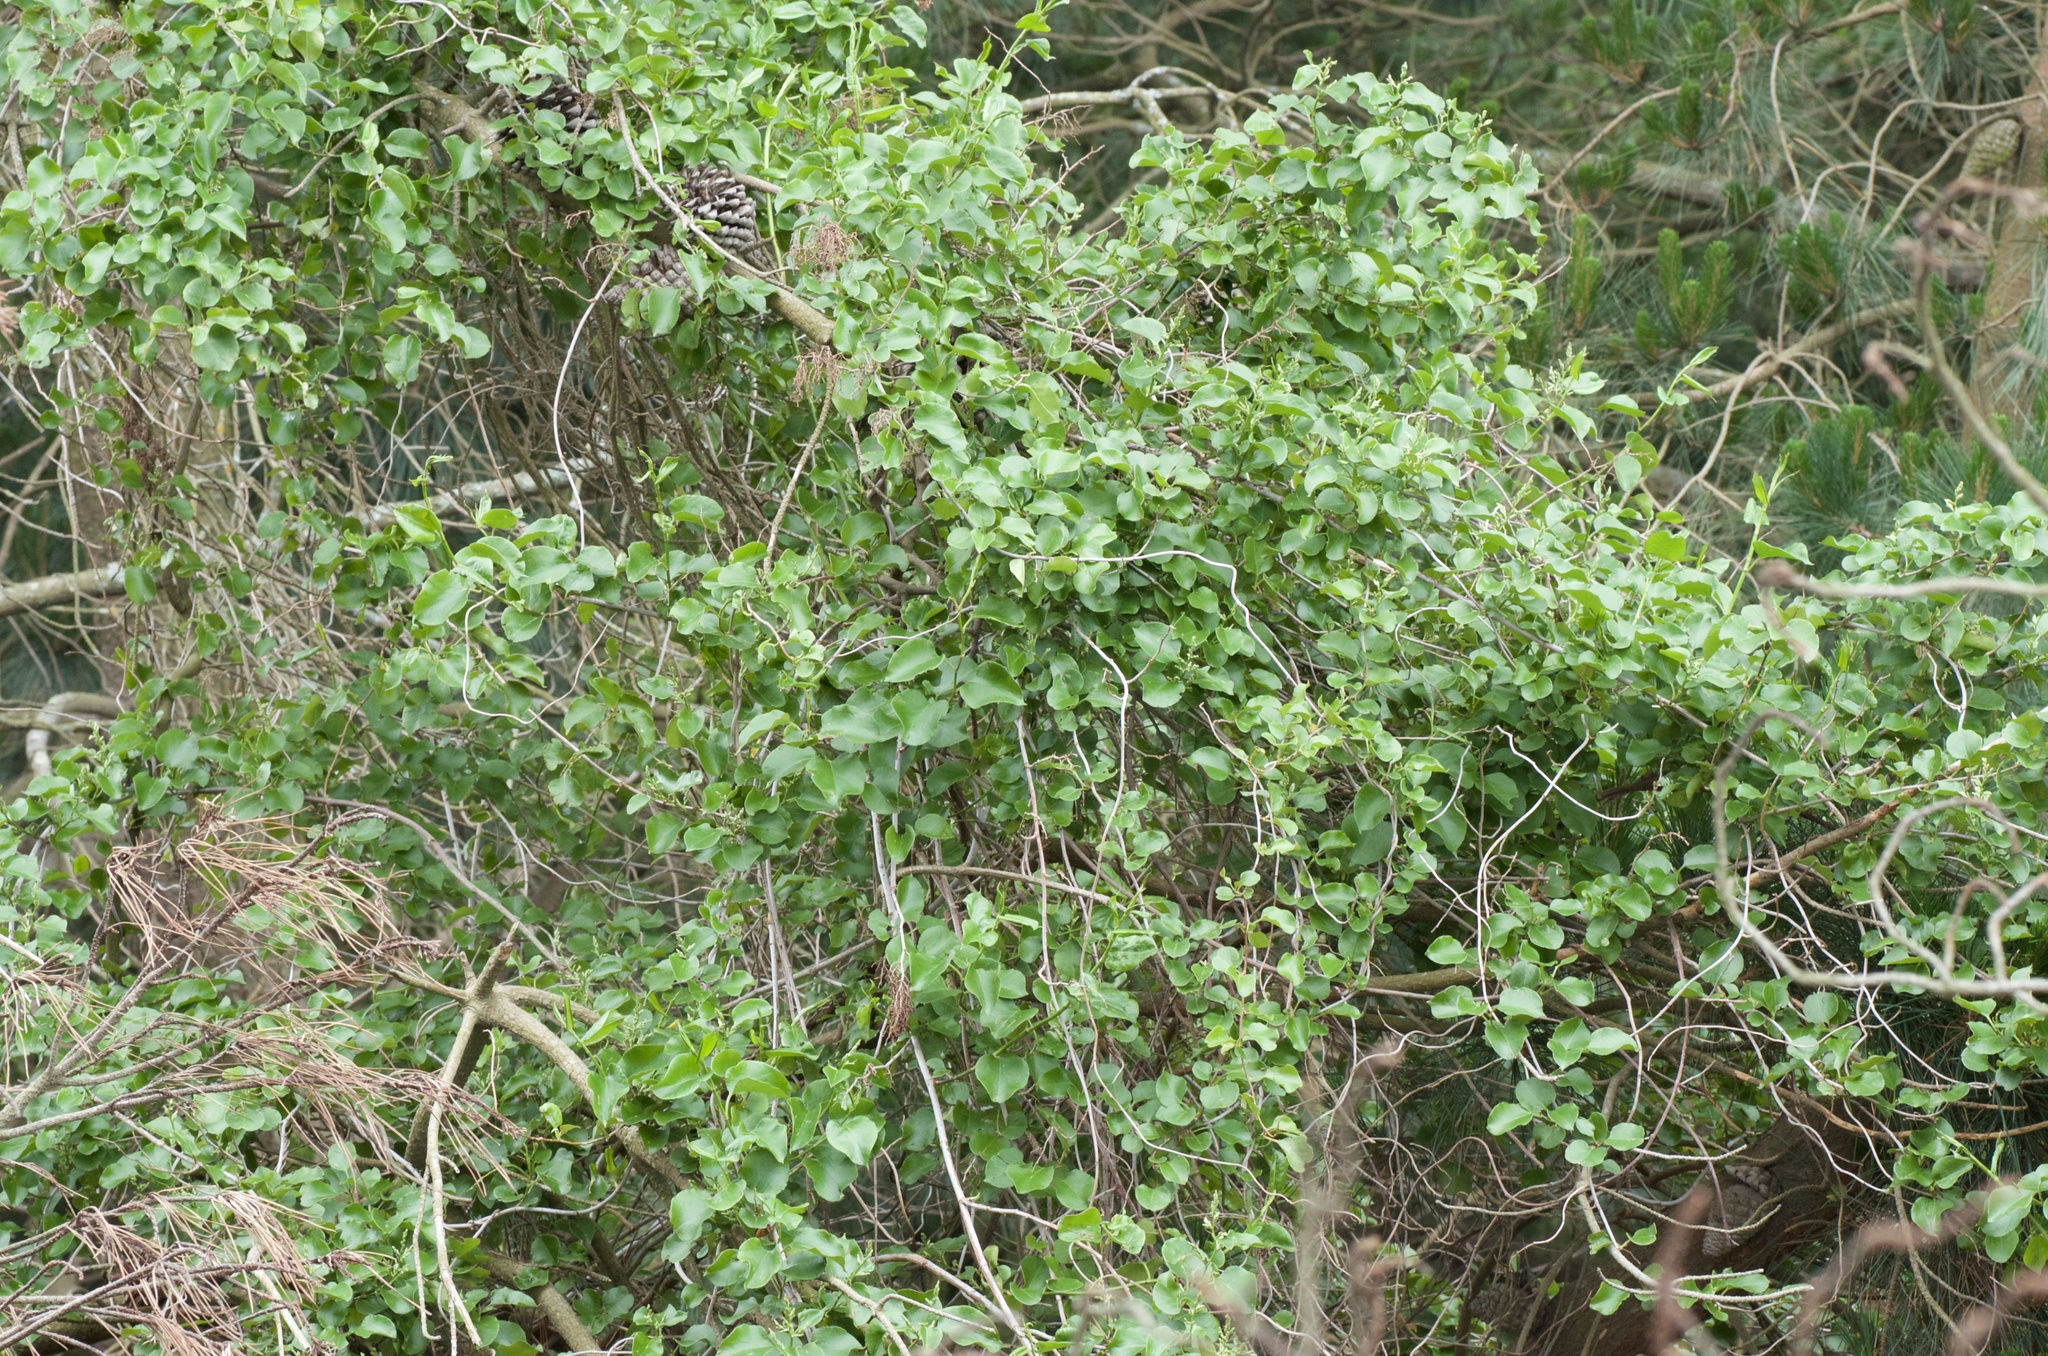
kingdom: Plantae
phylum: Tracheophyta
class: Magnoliopsida
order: Caryophyllales
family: Polygonaceae
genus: Muehlenbeckia
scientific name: Muehlenbeckia australis
